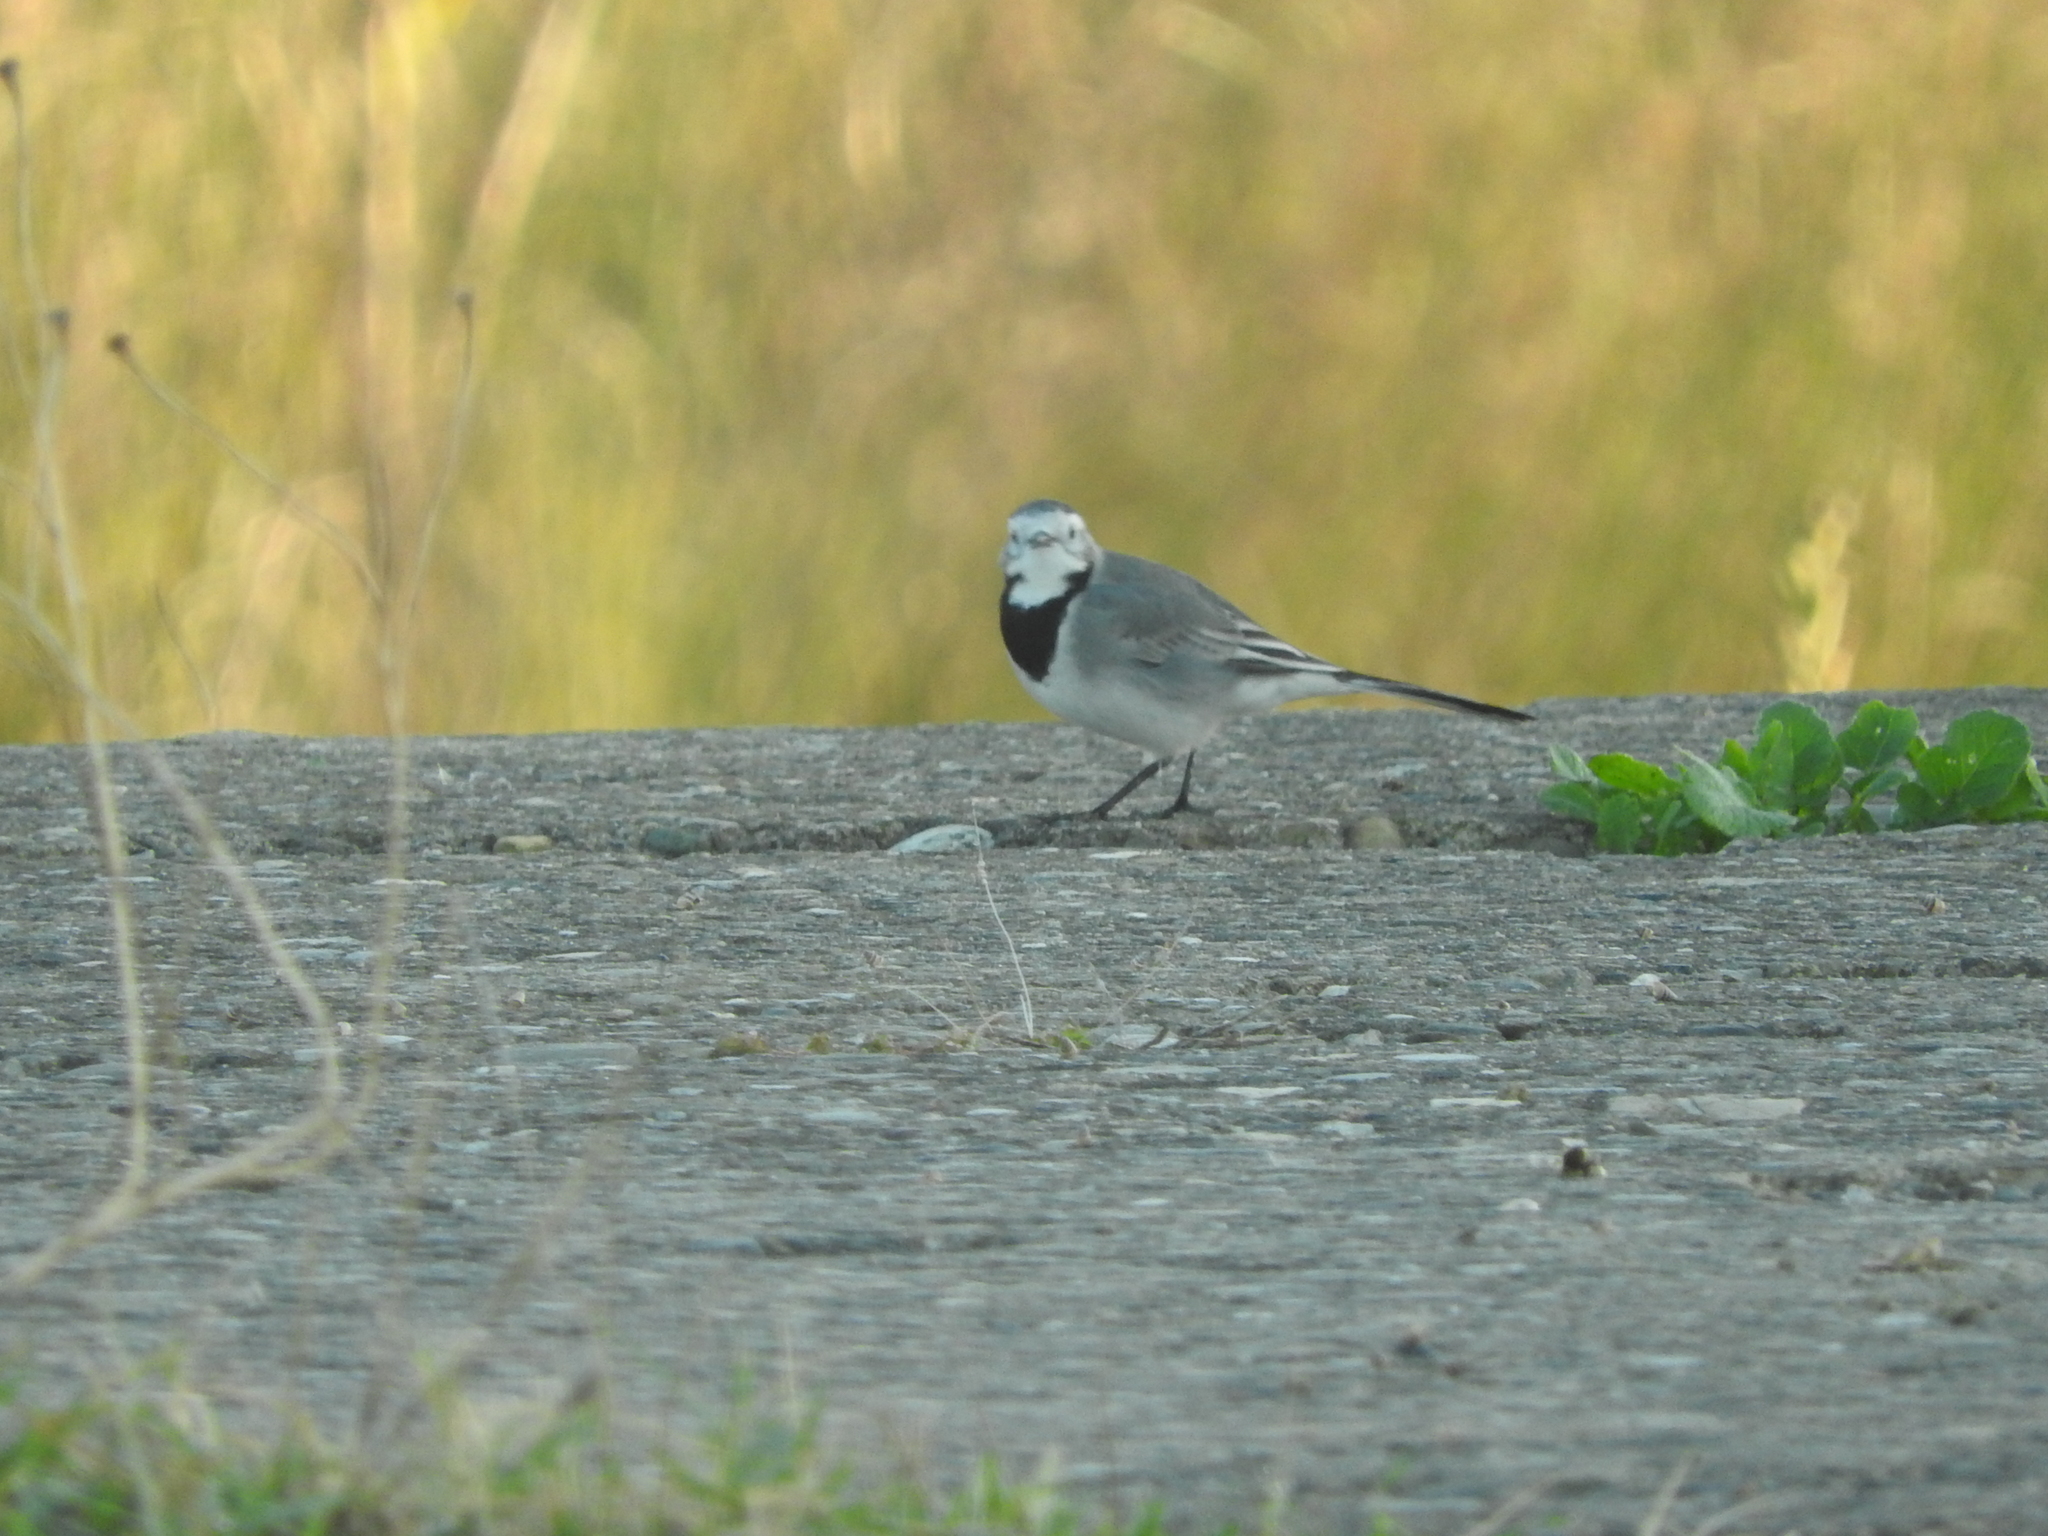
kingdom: Animalia
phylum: Chordata
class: Aves
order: Passeriformes
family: Motacillidae
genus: Motacilla
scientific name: Motacilla alba
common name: White wagtail
